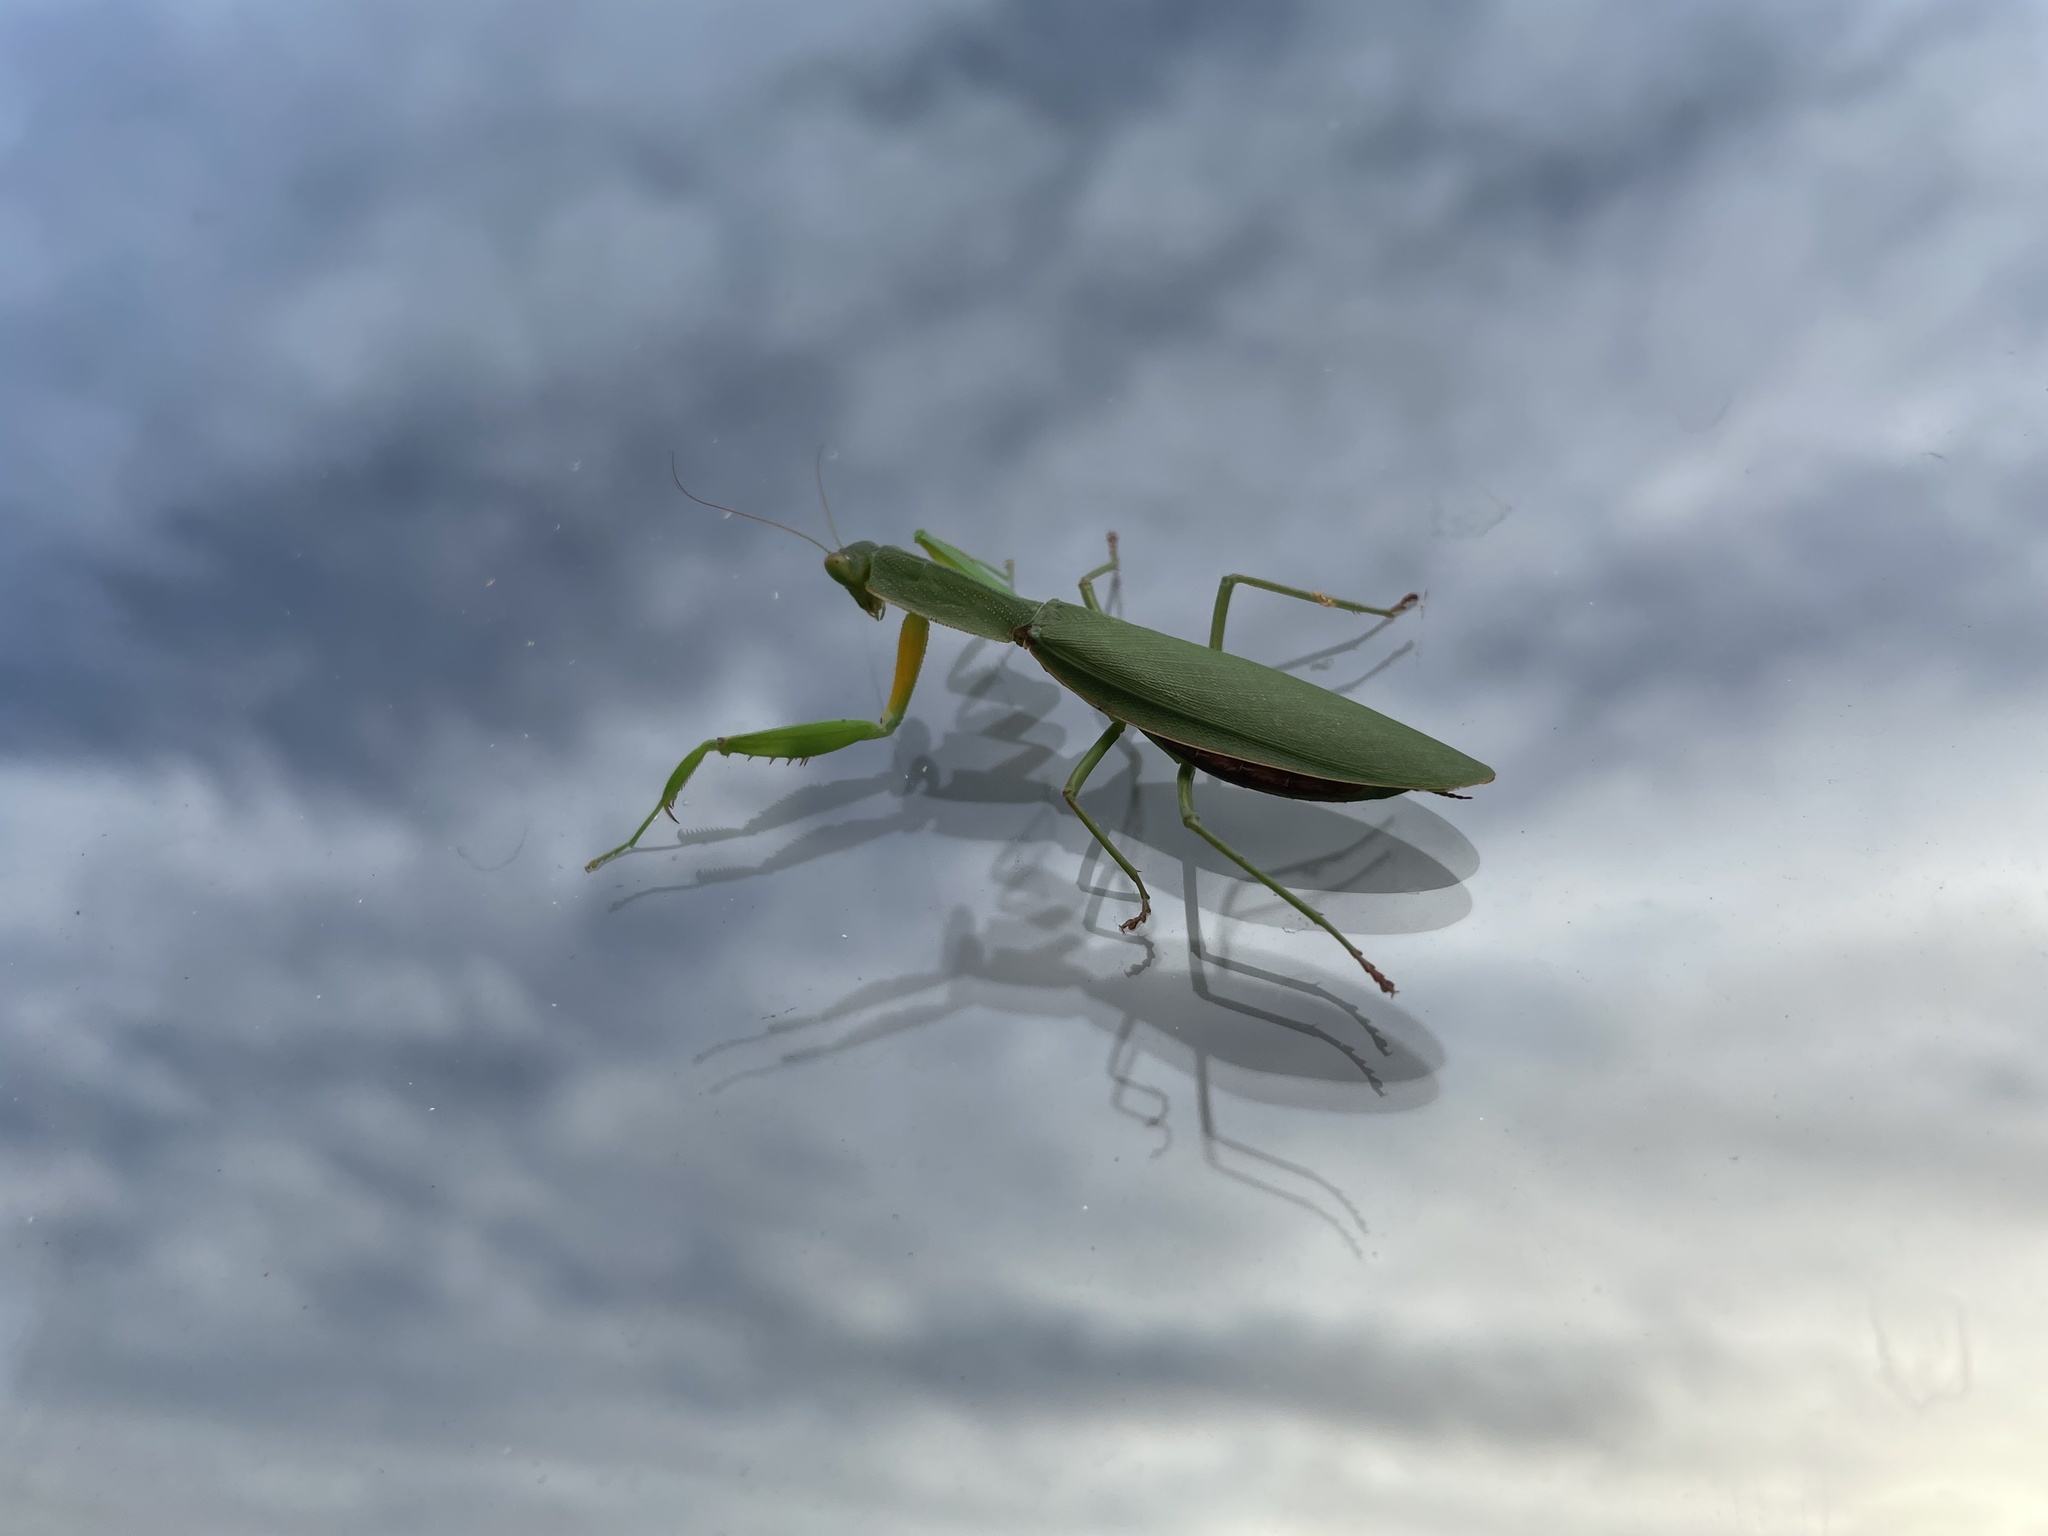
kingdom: Animalia
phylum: Arthropoda
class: Insecta
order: Mantodea
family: Mantidae
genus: Orthodera
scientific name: Orthodera novaezealandiae
